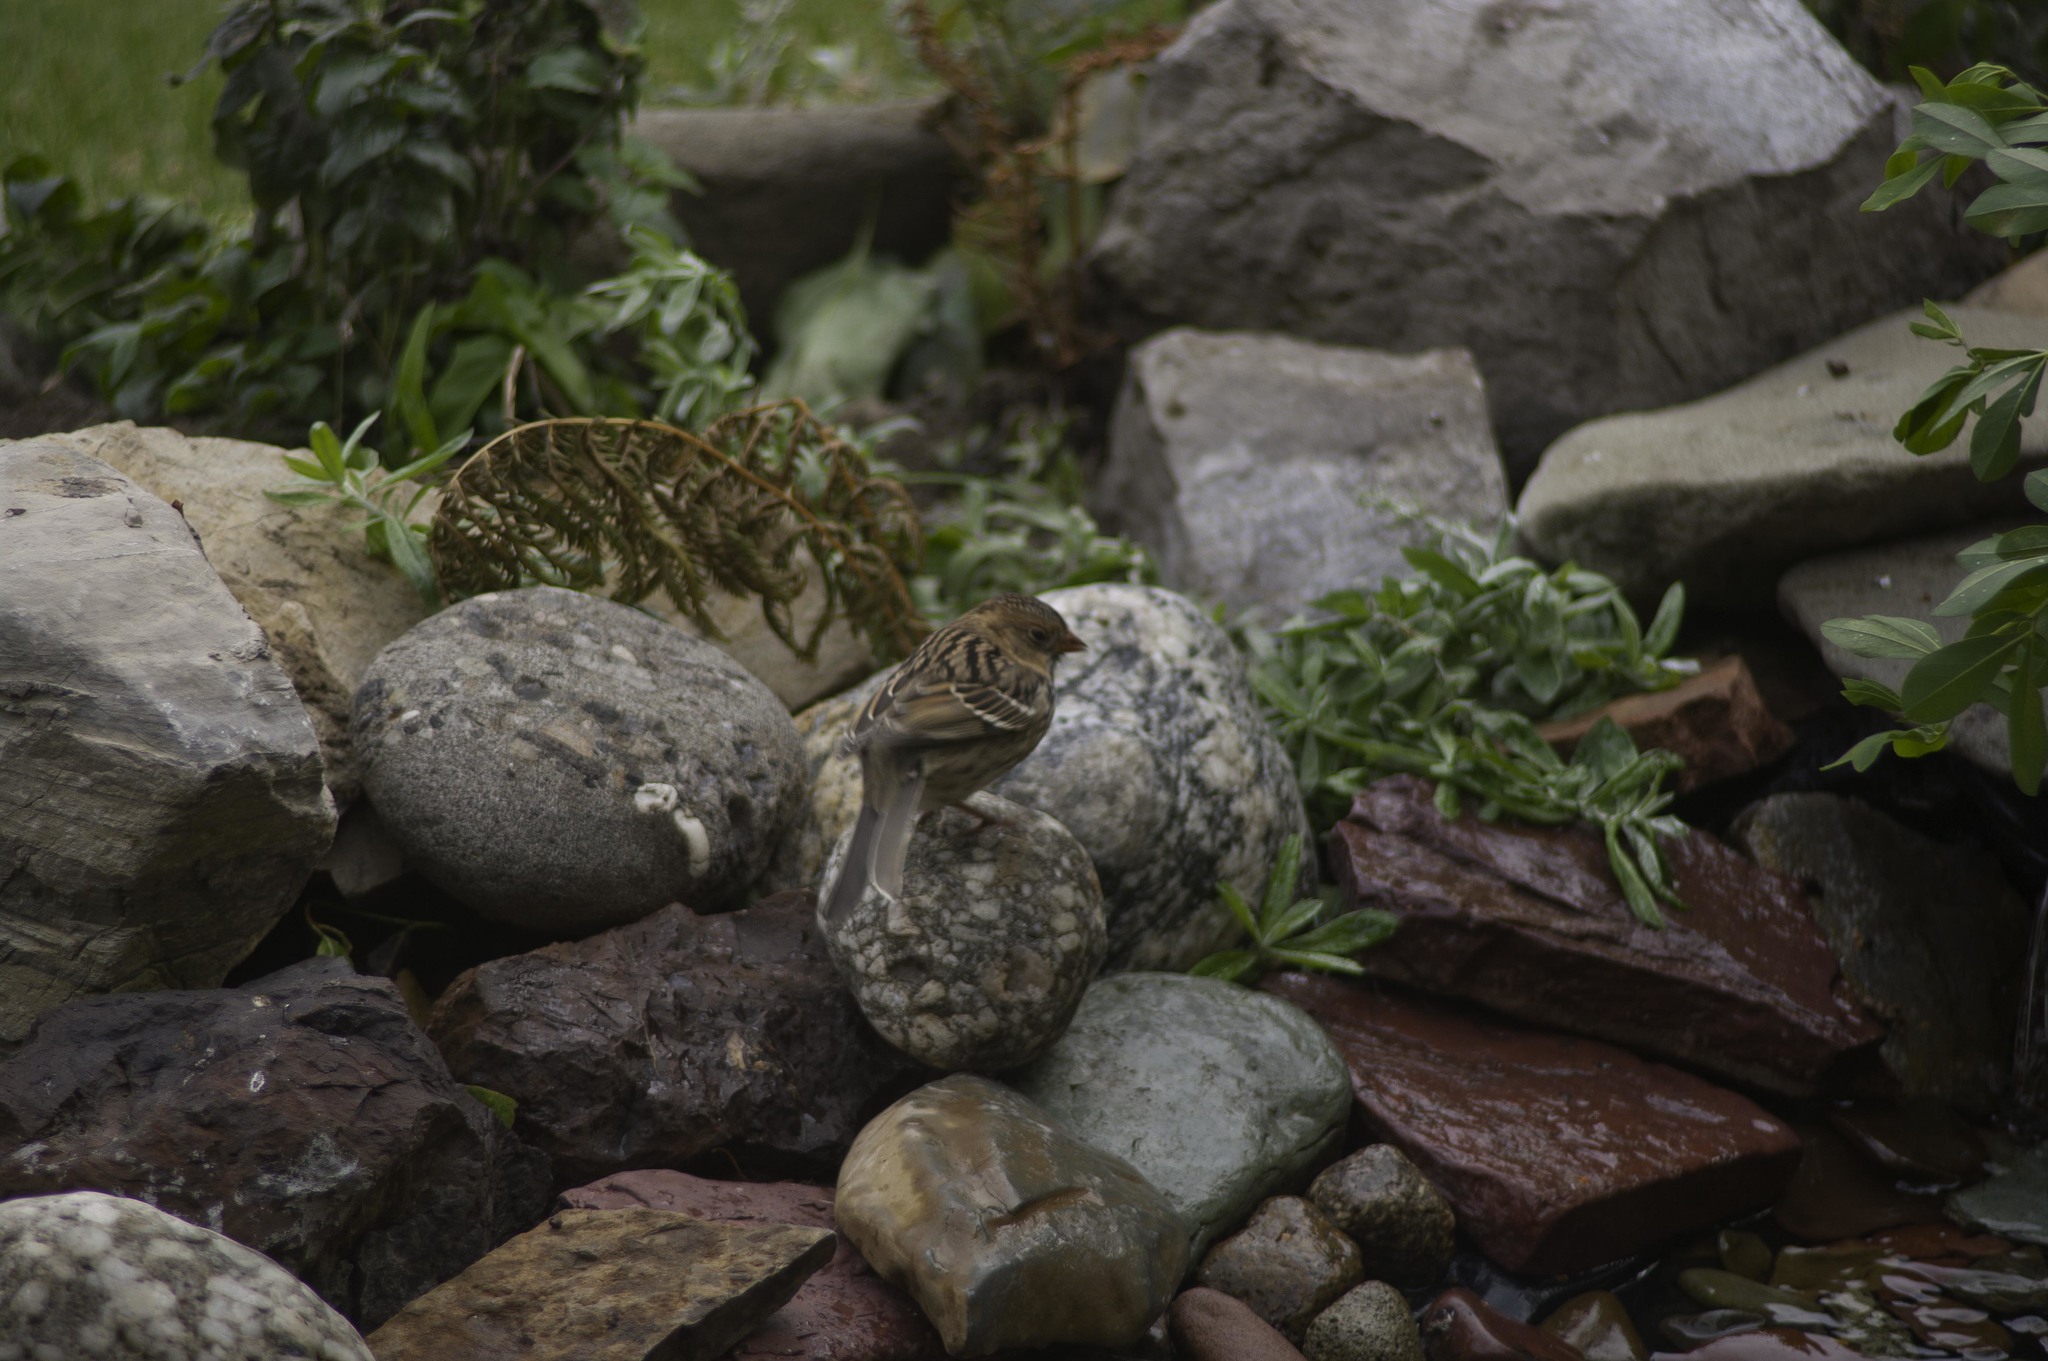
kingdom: Animalia
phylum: Chordata
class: Aves
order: Passeriformes
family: Passerellidae
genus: Zonotrichia
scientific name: Zonotrichia querula
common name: Harris's sparrow
